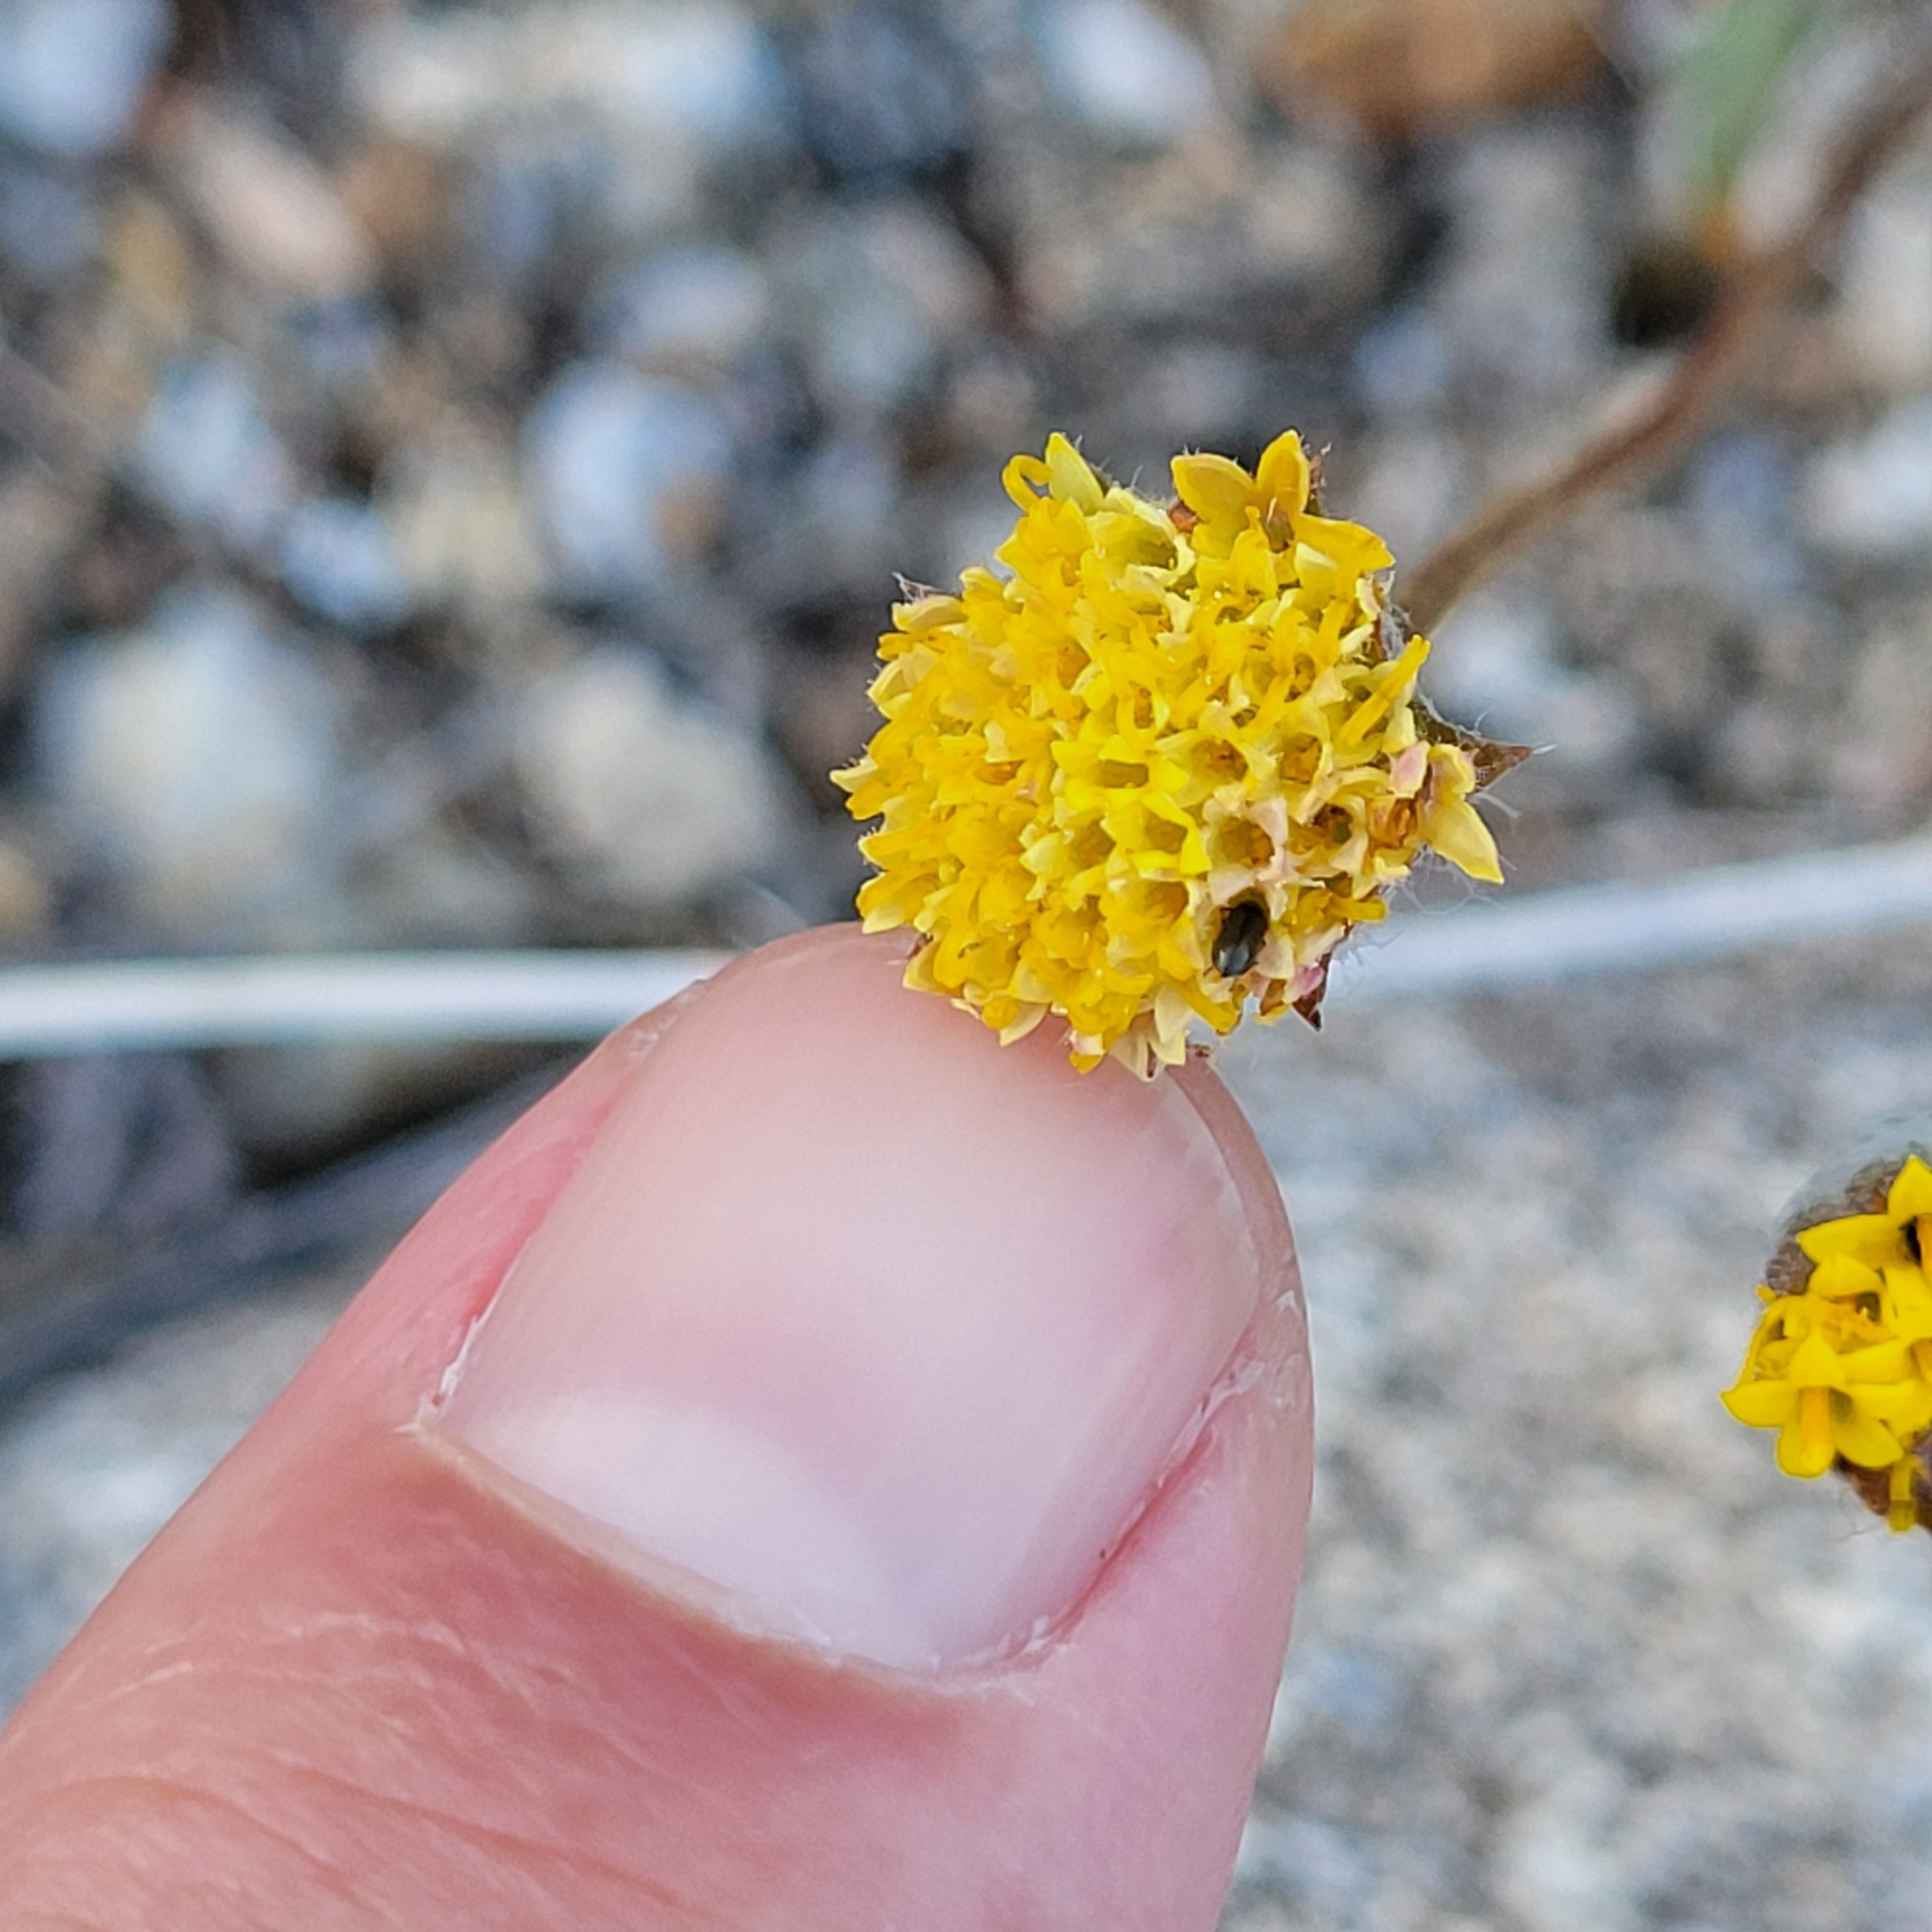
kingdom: Plantae
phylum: Tracheophyta
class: Magnoliopsida
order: Asterales
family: Asteraceae
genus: Trichoptilium
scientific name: Trichoptilium incisum
